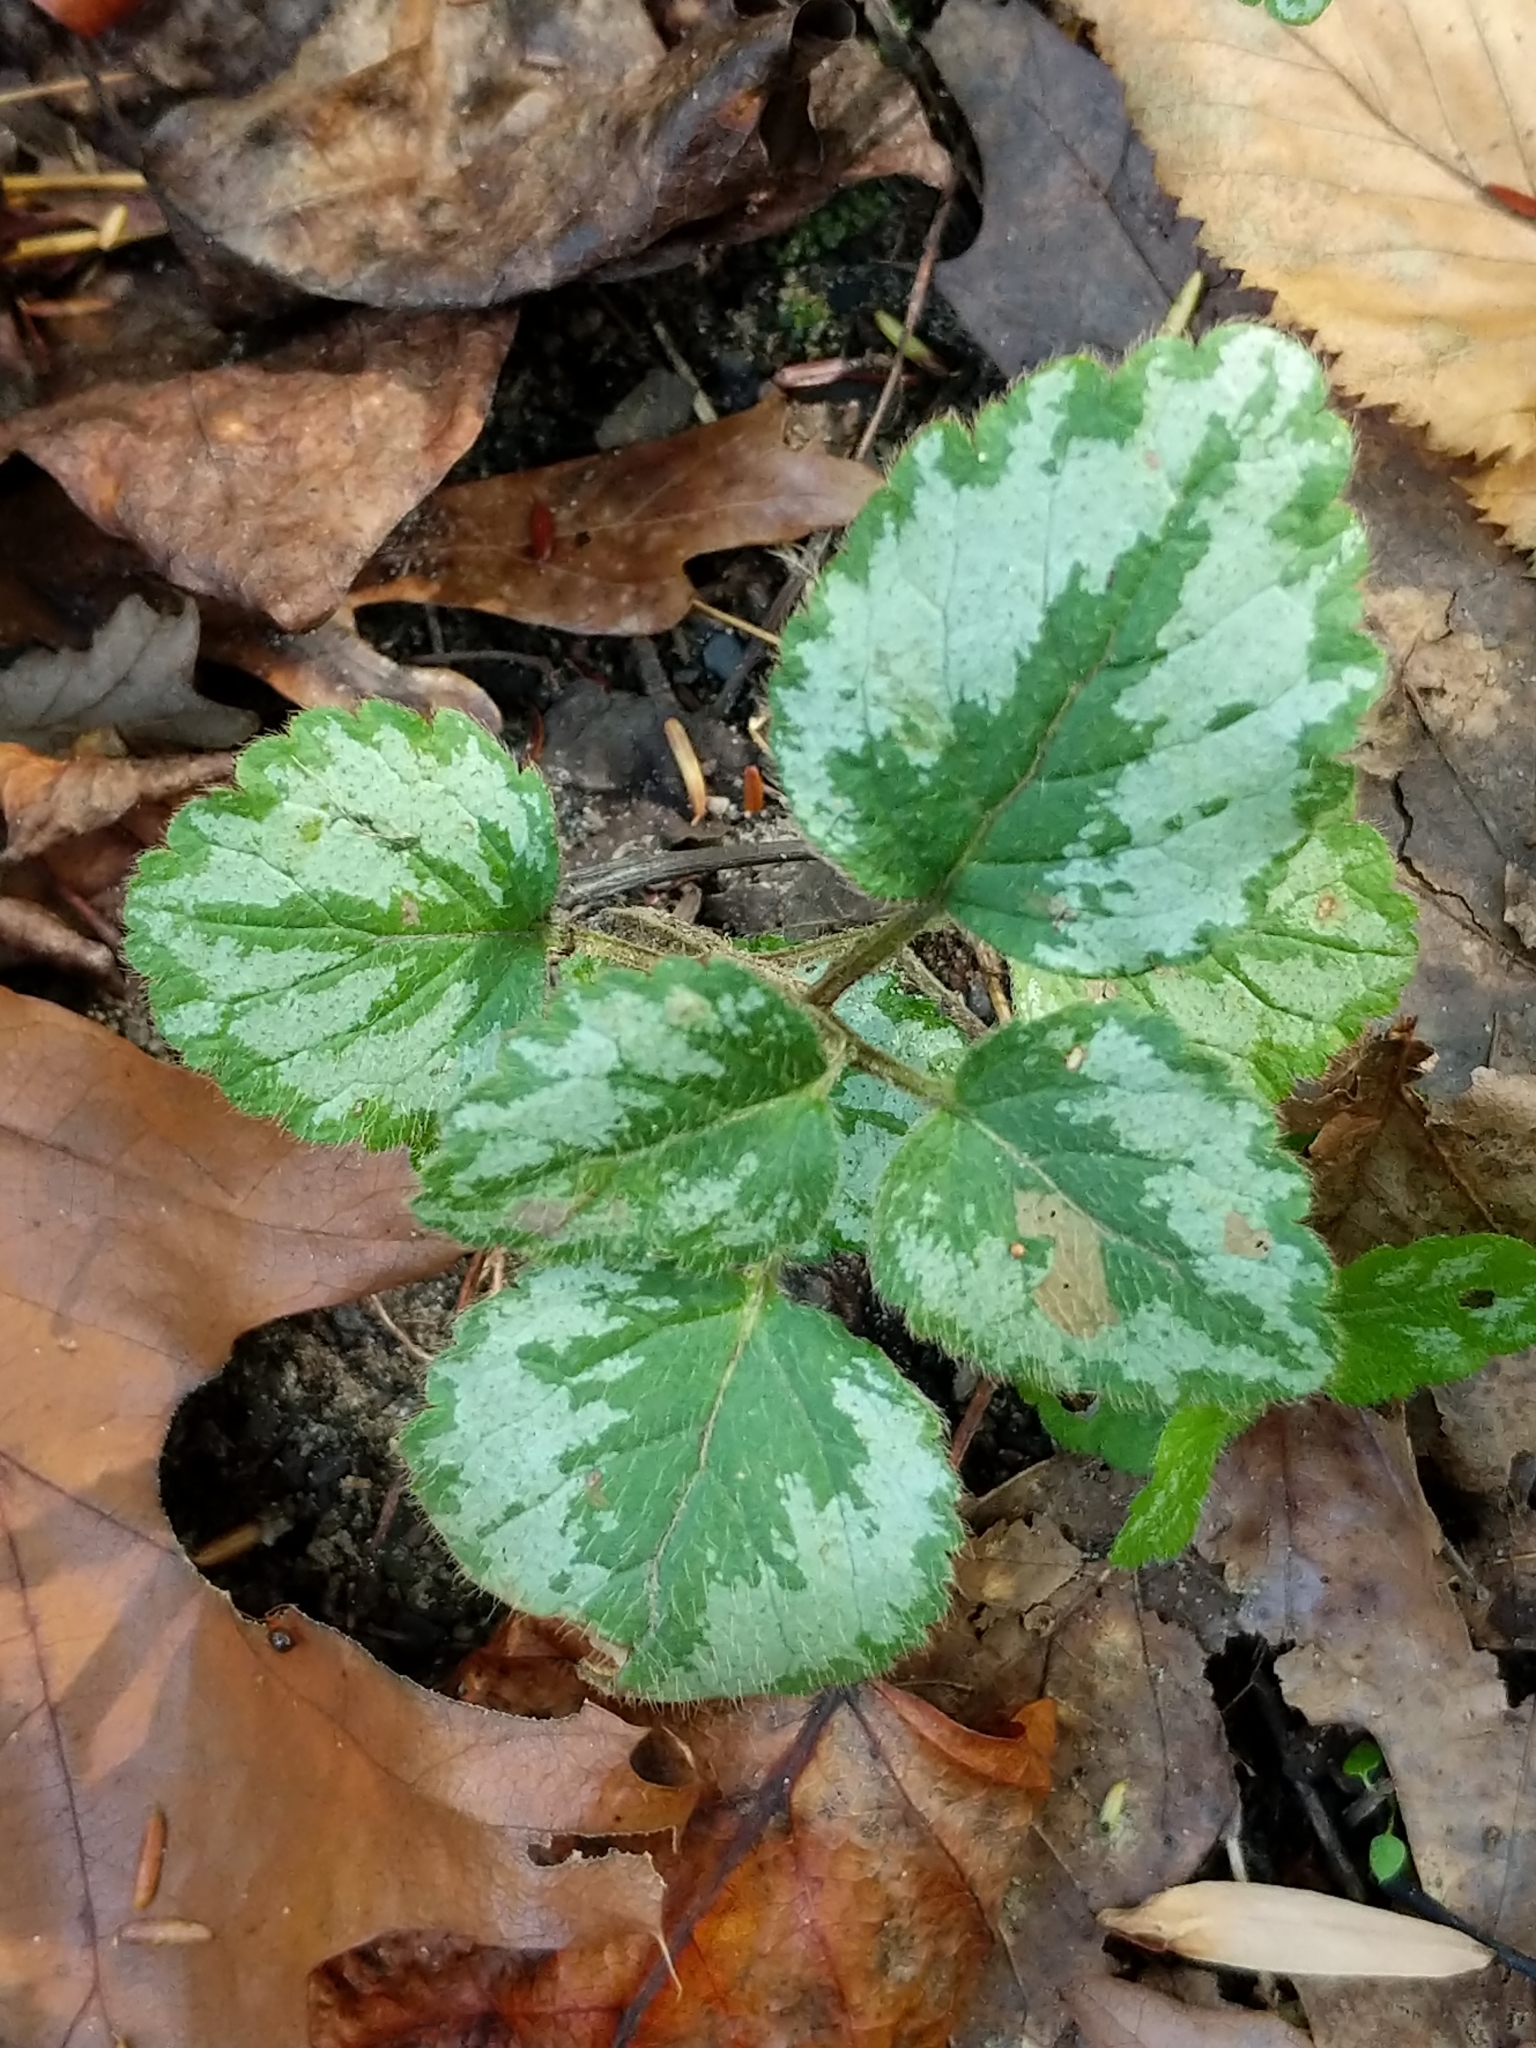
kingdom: Plantae
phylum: Tracheophyta
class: Magnoliopsida
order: Lamiales
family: Lamiaceae
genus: Lamium
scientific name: Lamium galeobdolon
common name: Yellow archangel
